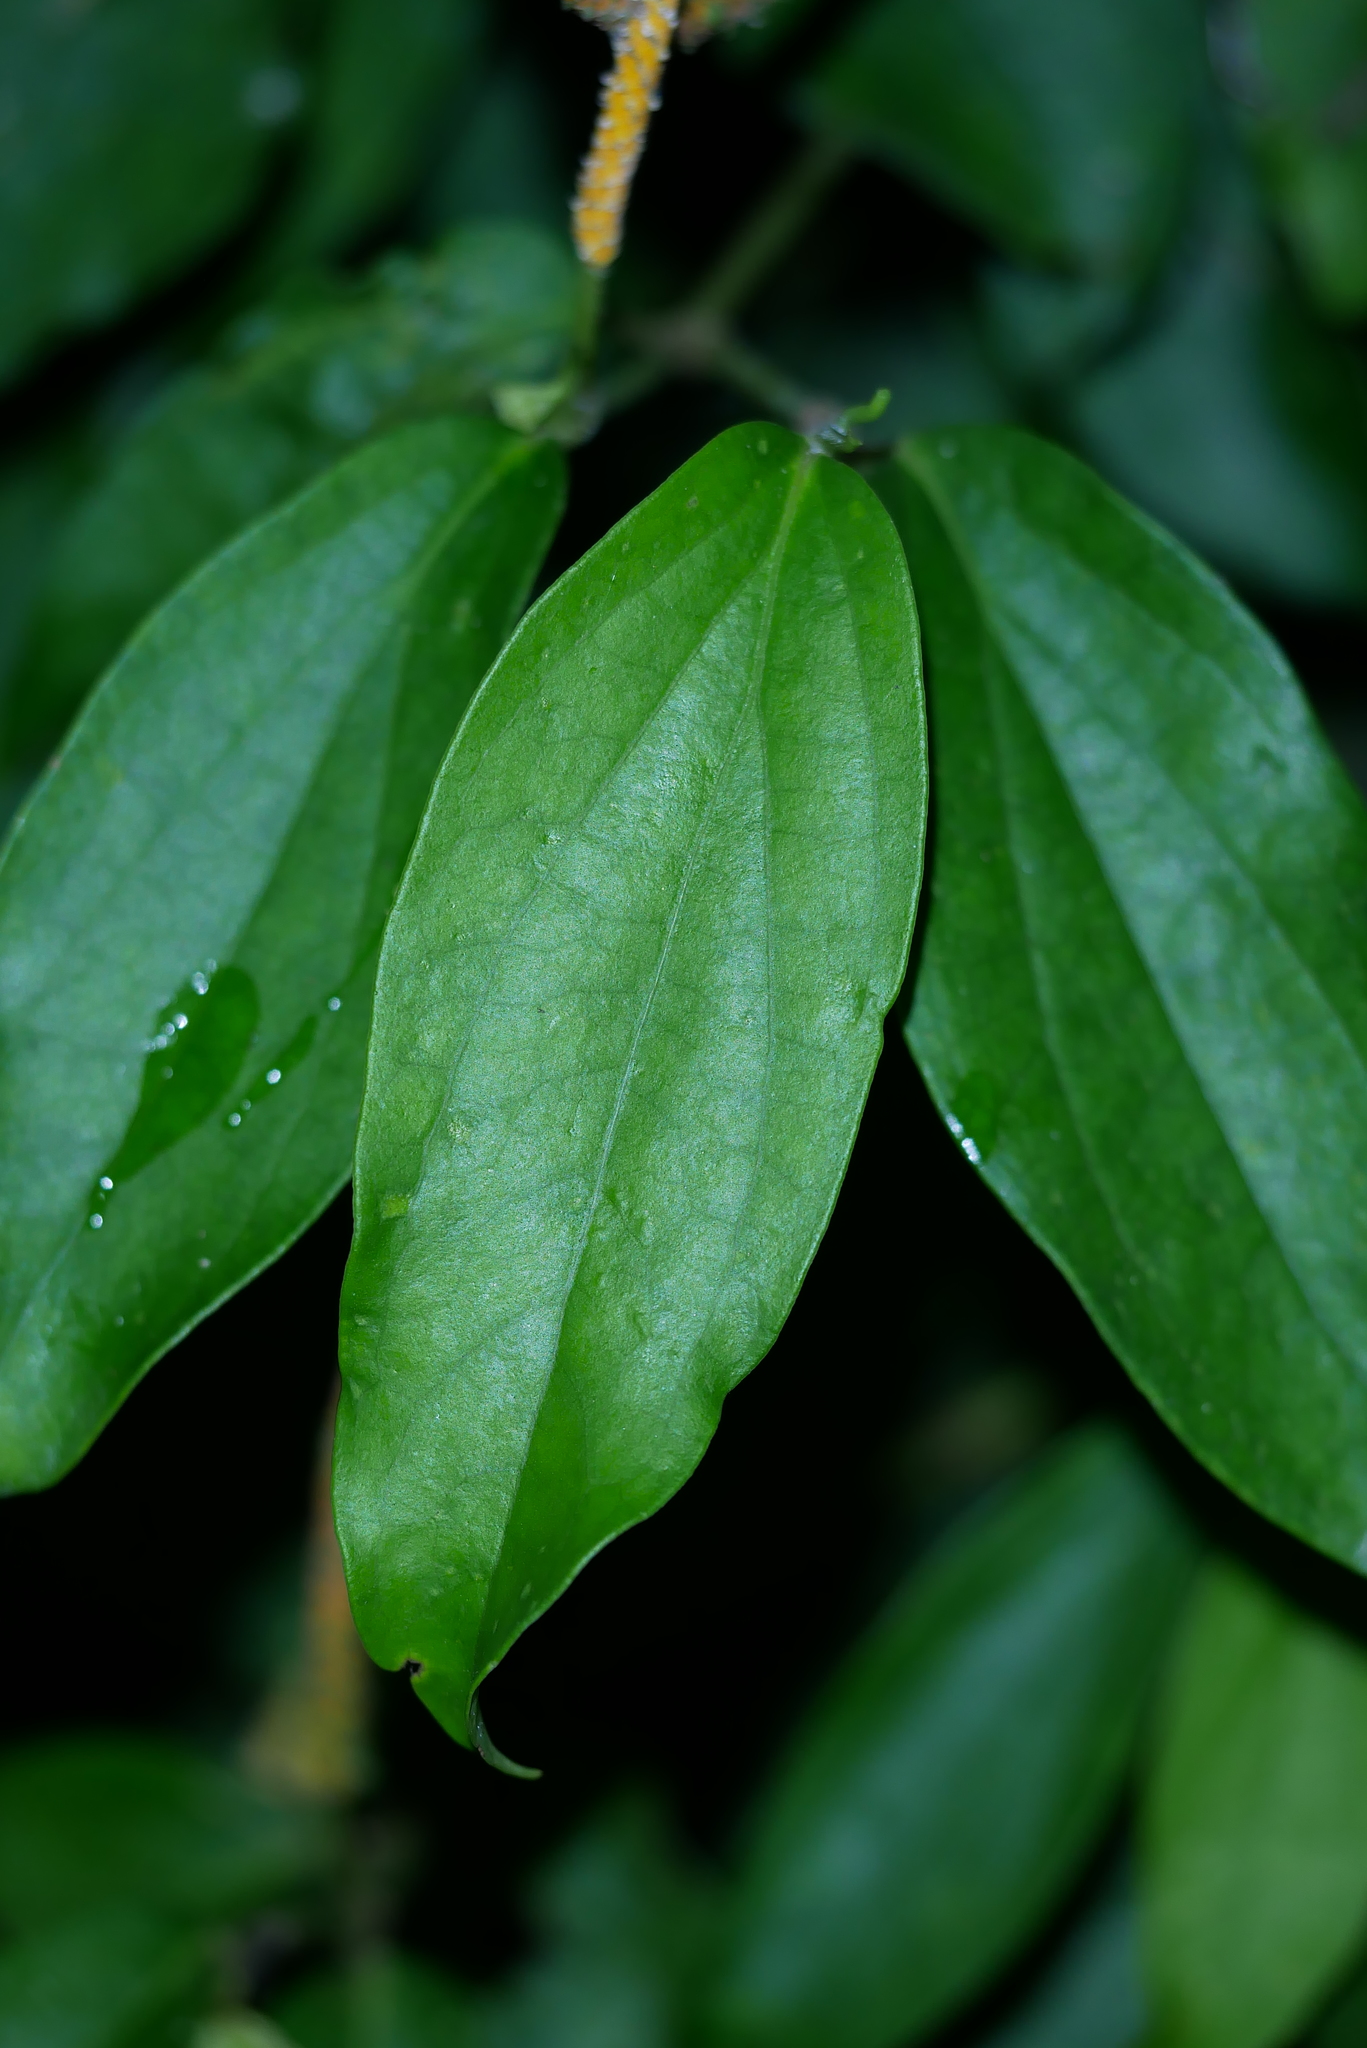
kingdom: Plantae
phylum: Tracheophyta
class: Magnoliopsida
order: Piperales
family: Piperaceae
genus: Piper
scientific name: Piper kadsura
